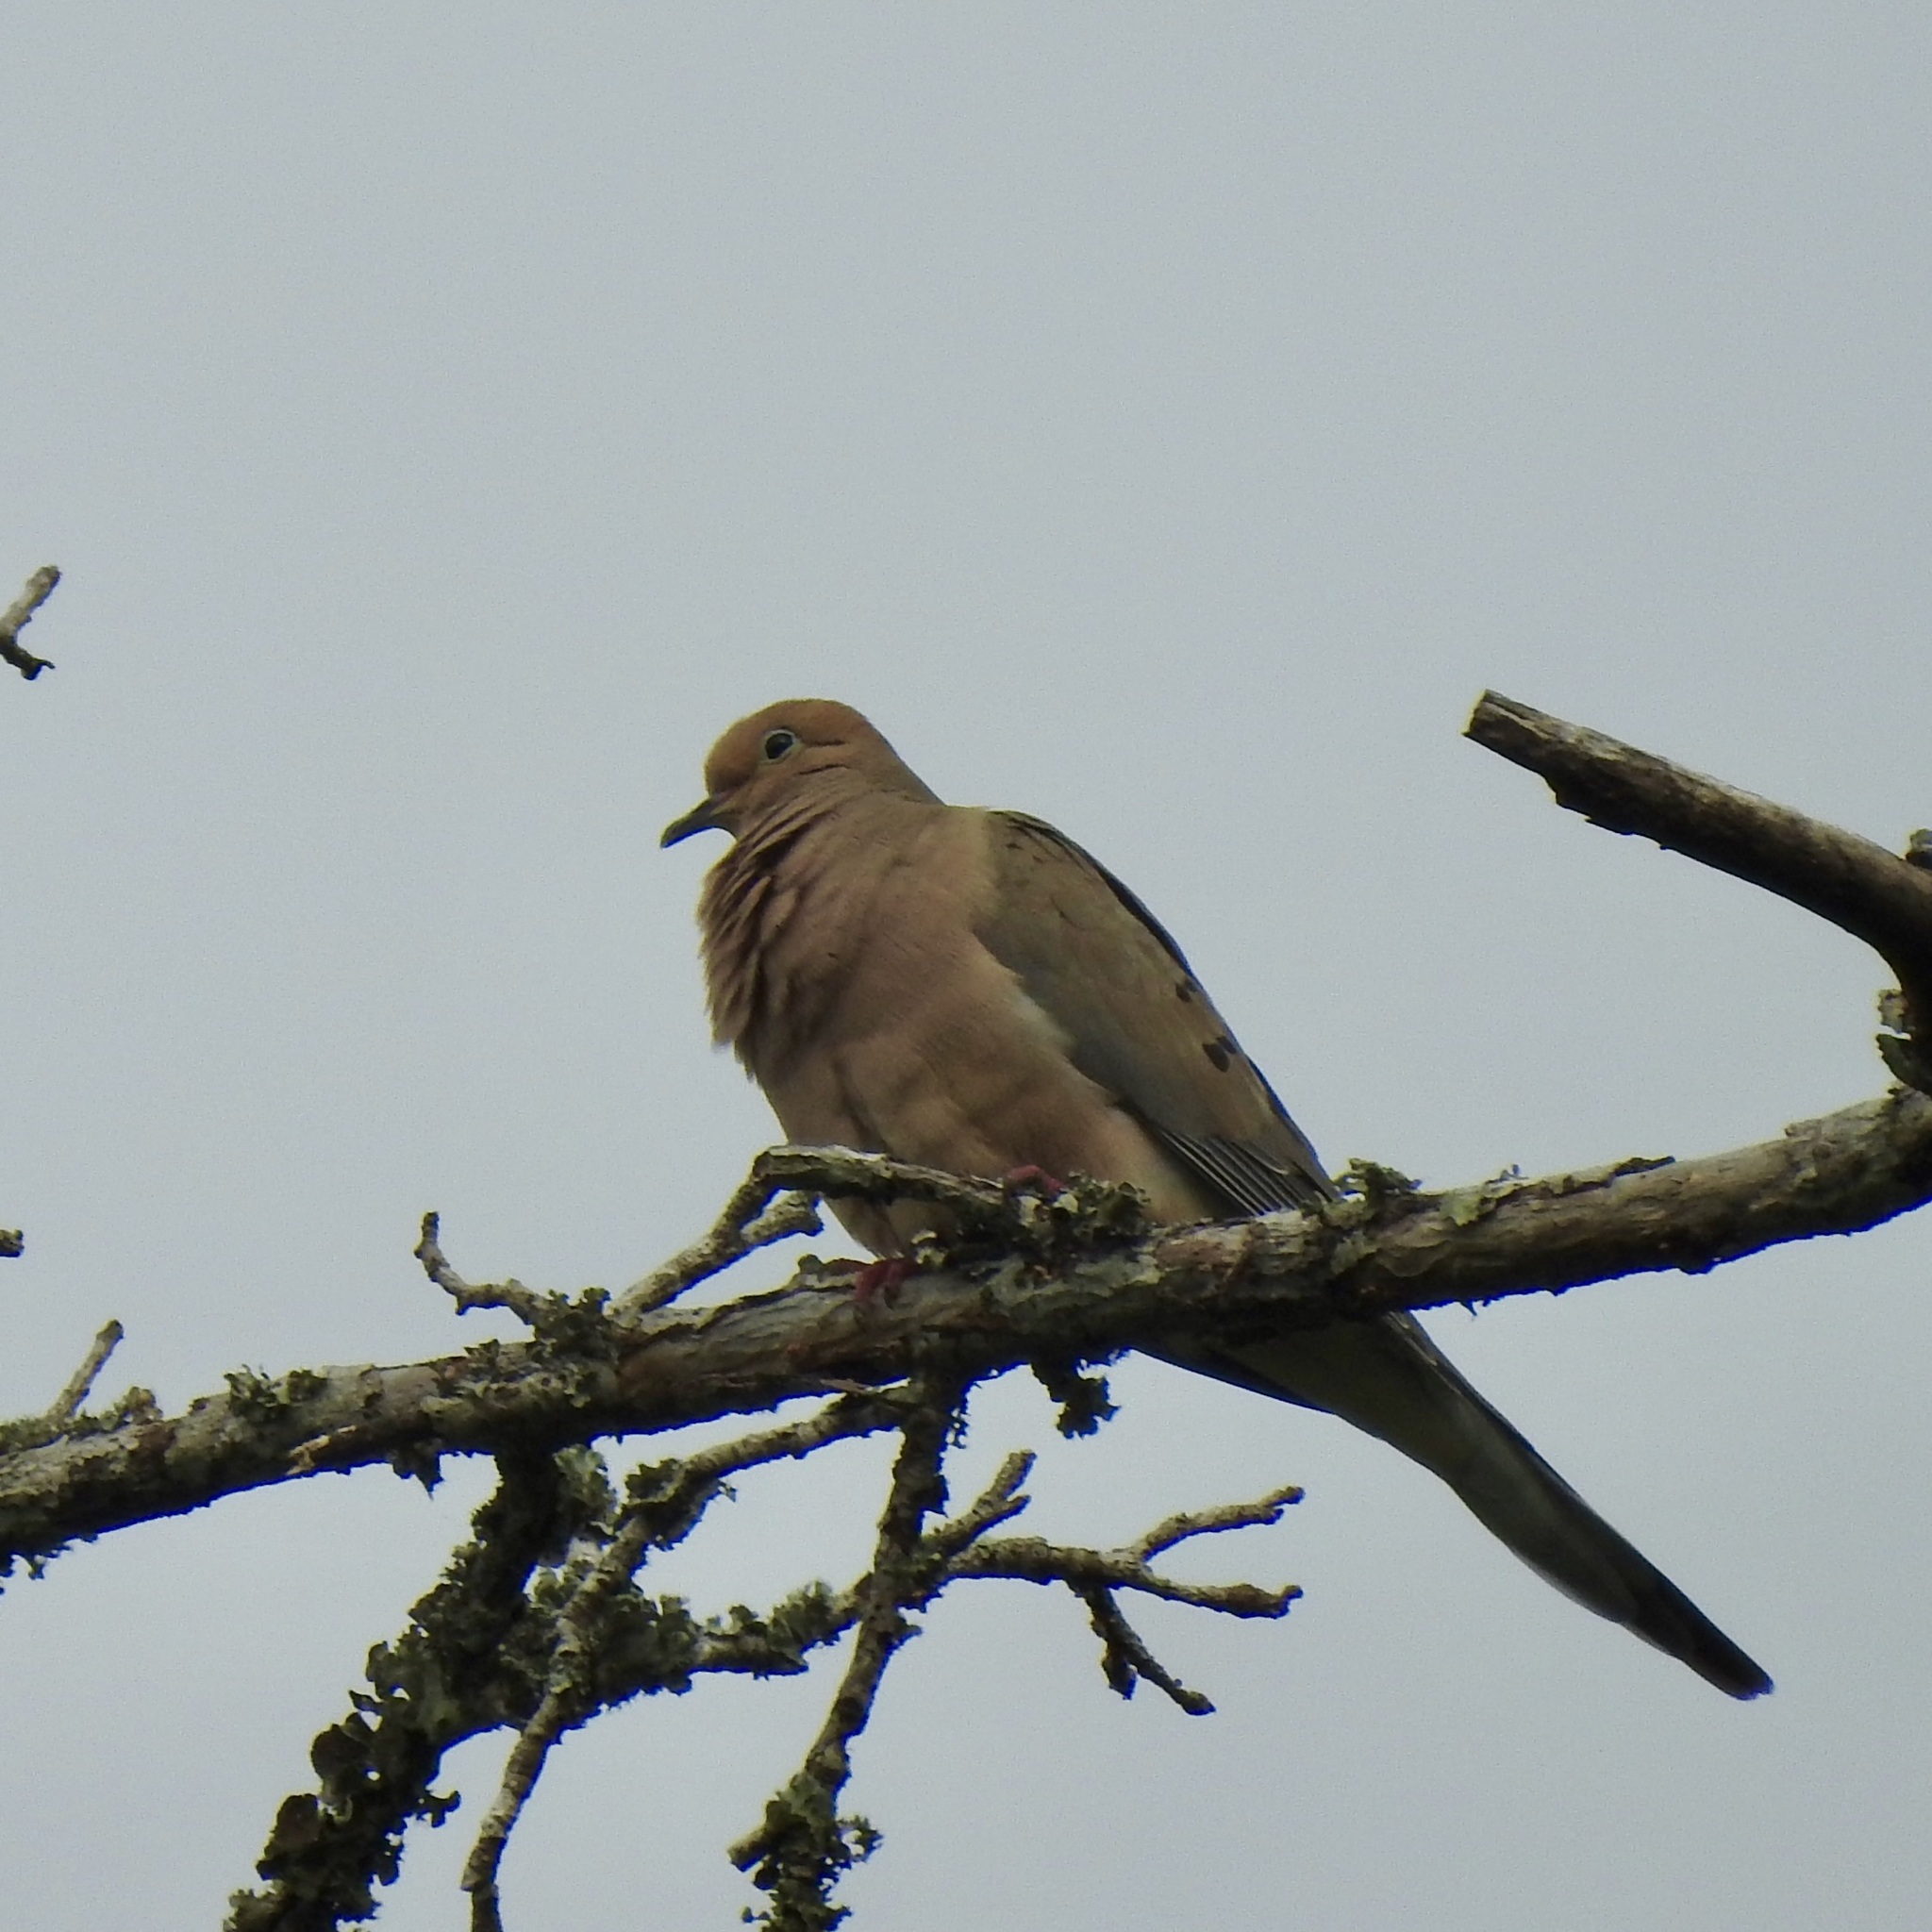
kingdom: Animalia
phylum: Chordata
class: Aves
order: Columbiformes
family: Columbidae
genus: Zenaida
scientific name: Zenaida macroura
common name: Mourning dove
